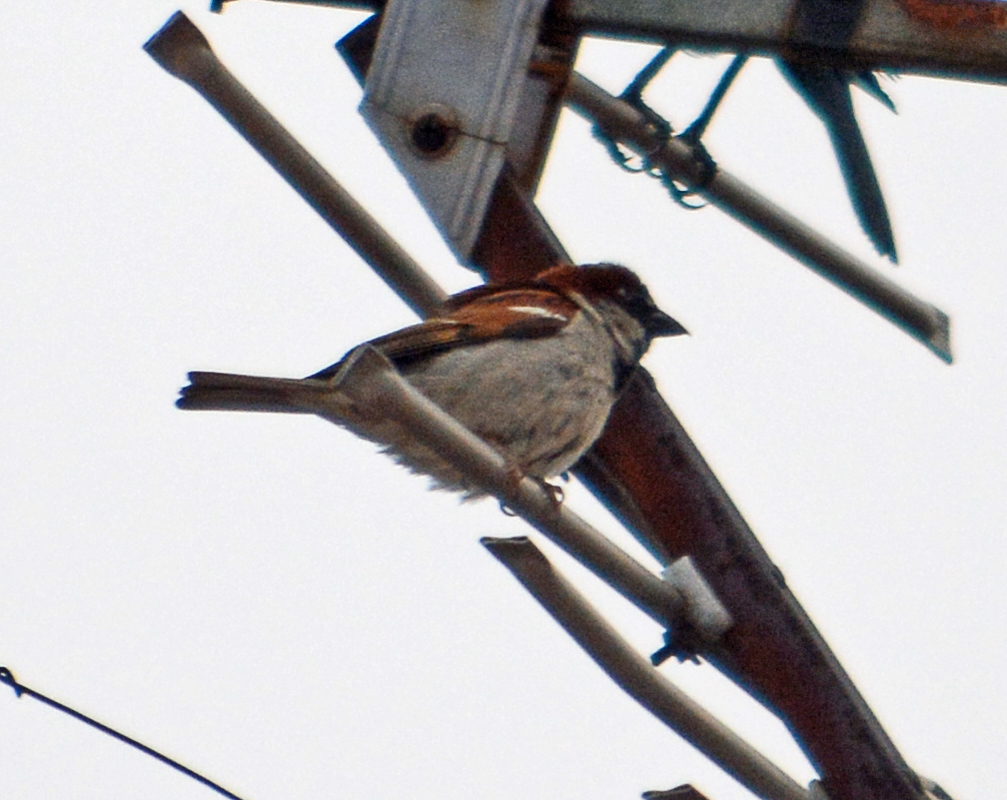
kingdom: Animalia
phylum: Chordata
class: Aves
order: Passeriformes
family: Passeridae
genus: Passer
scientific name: Passer domesticus
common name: House sparrow
